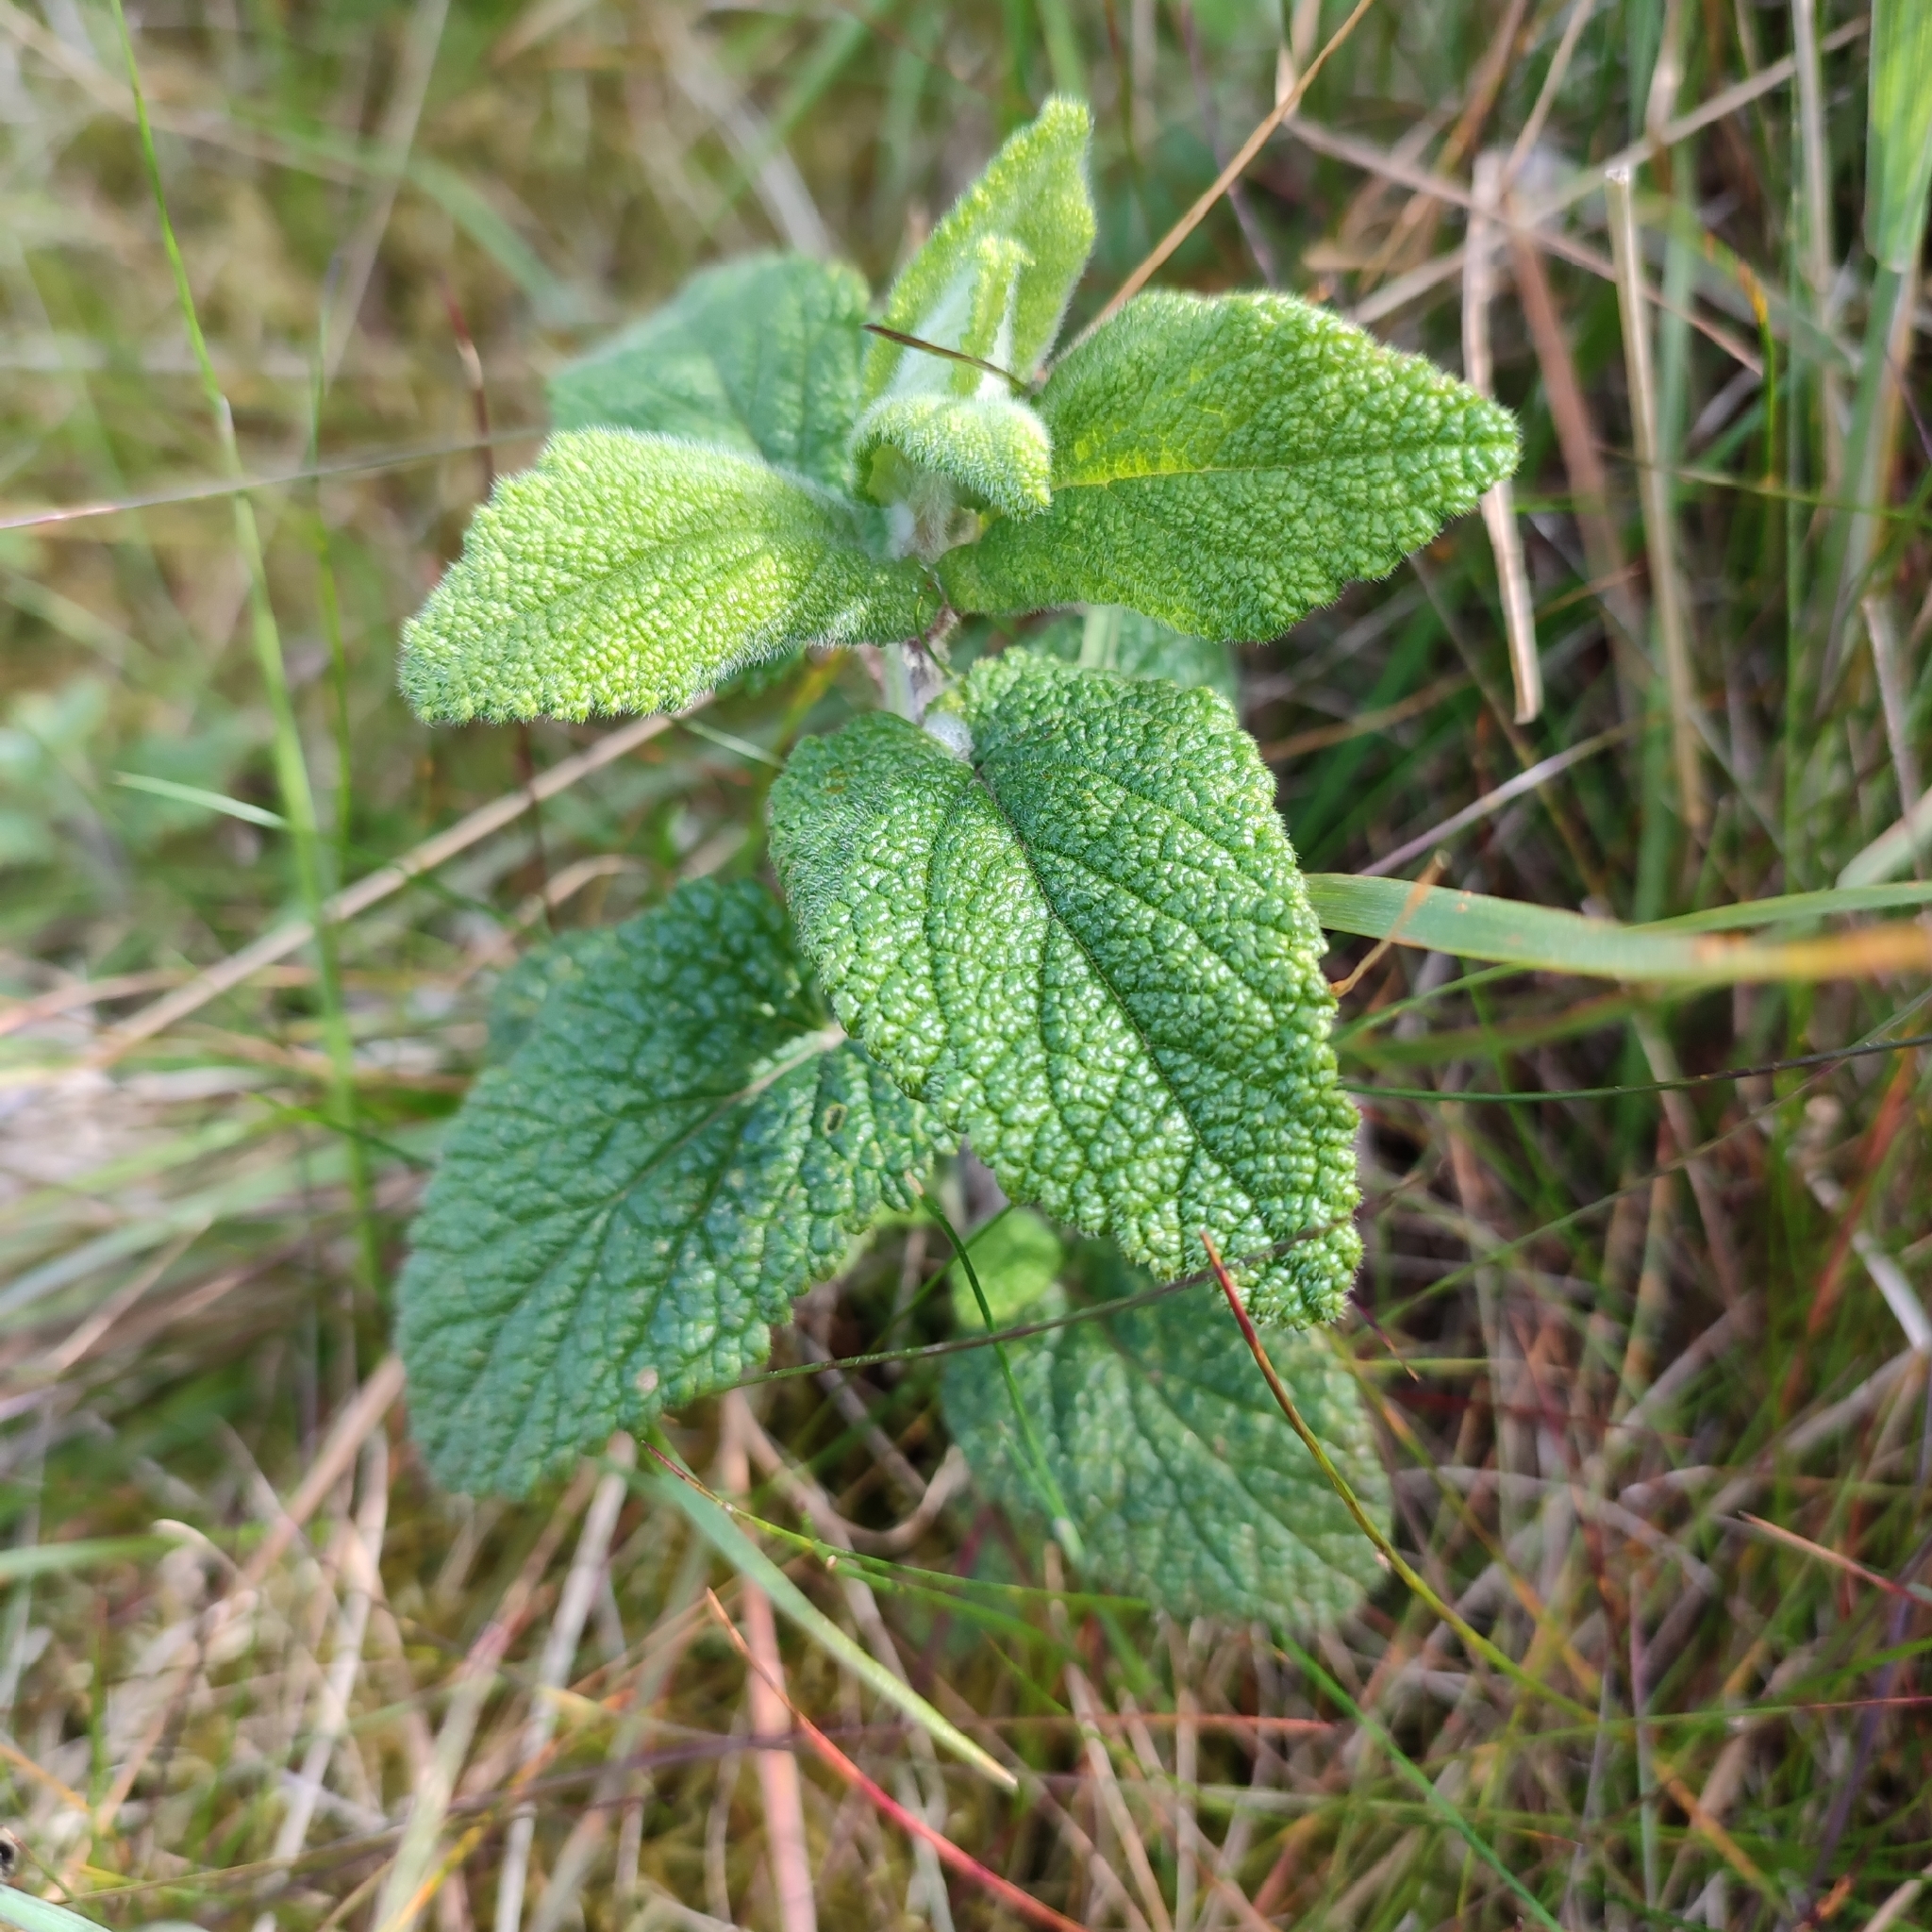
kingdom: Plantae
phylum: Tracheophyta
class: Magnoliopsida
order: Lamiales
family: Lamiaceae
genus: Teucrium
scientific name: Teucrium scorodonia
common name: Woodland germander
